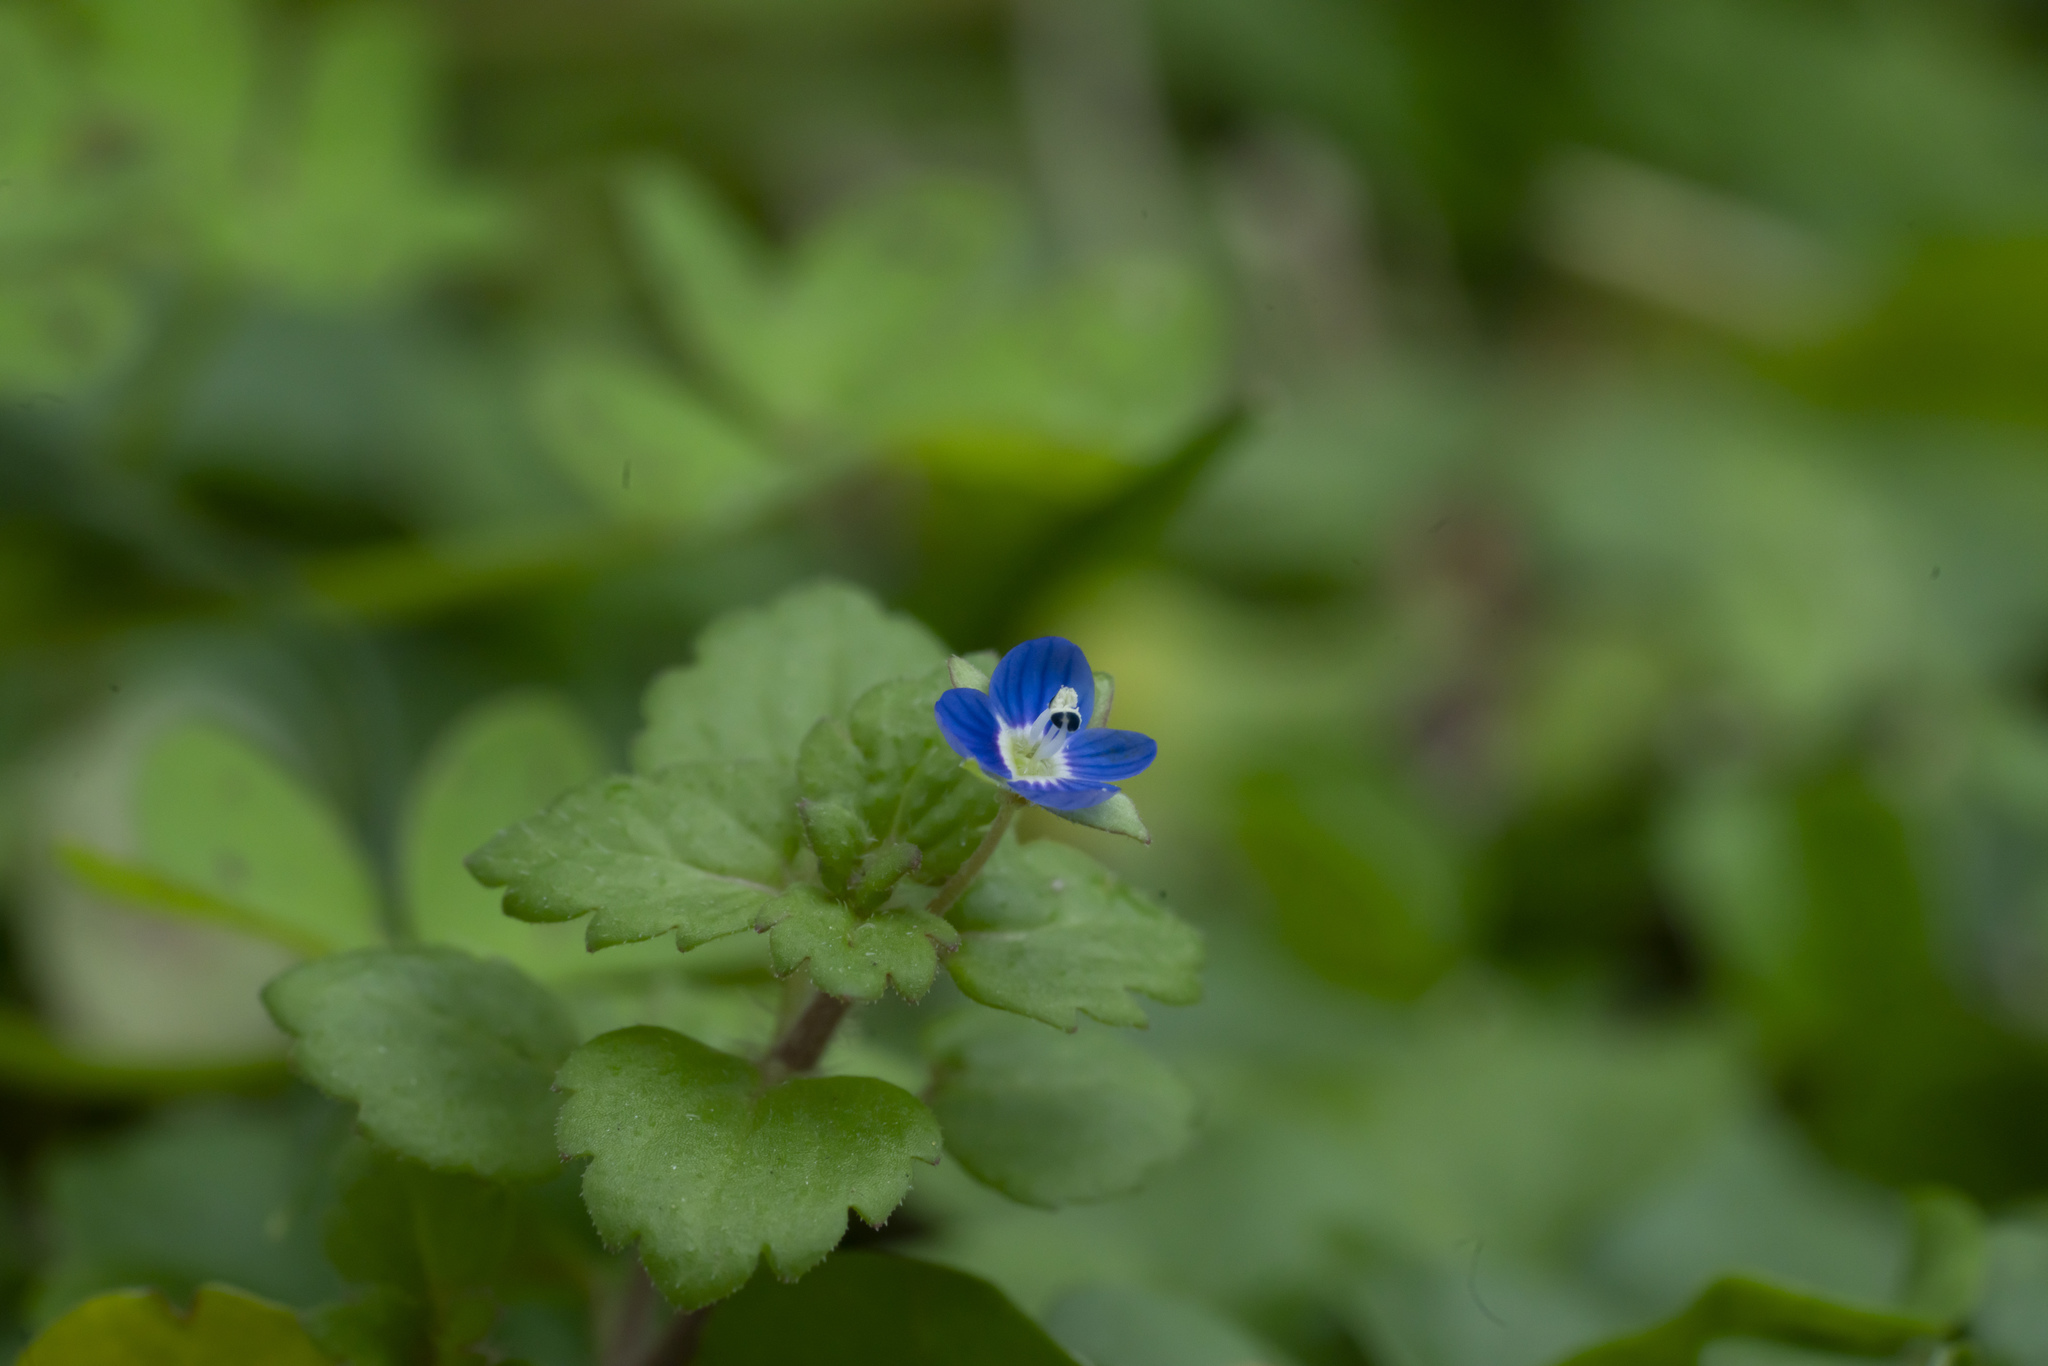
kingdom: Plantae
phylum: Tracheophyta
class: Magnoliopsida
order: Lamiales
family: Plantaginaceae
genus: Veronica
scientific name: Veronica polita
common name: Grey field-speedwell
